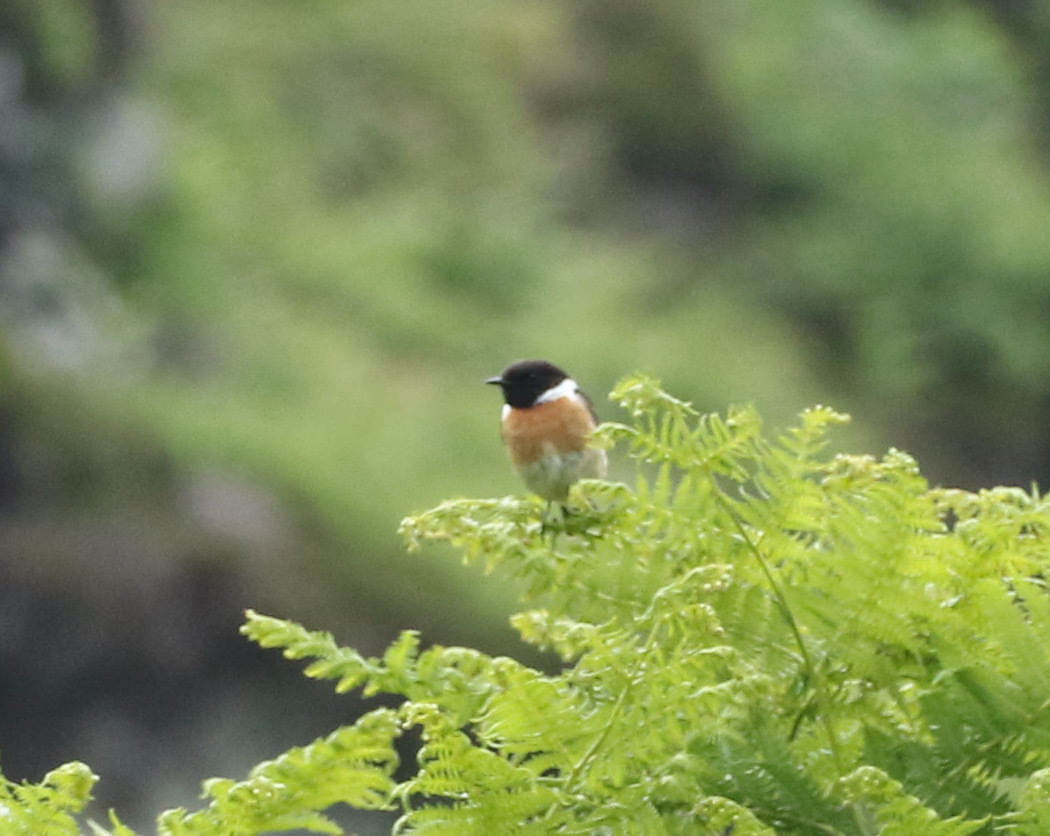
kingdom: Animalia
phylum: Chordata
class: Aves
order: Passeriformes
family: Muscicapidae
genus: Saxicola
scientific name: Saxicola rubicola
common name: European stonechat
